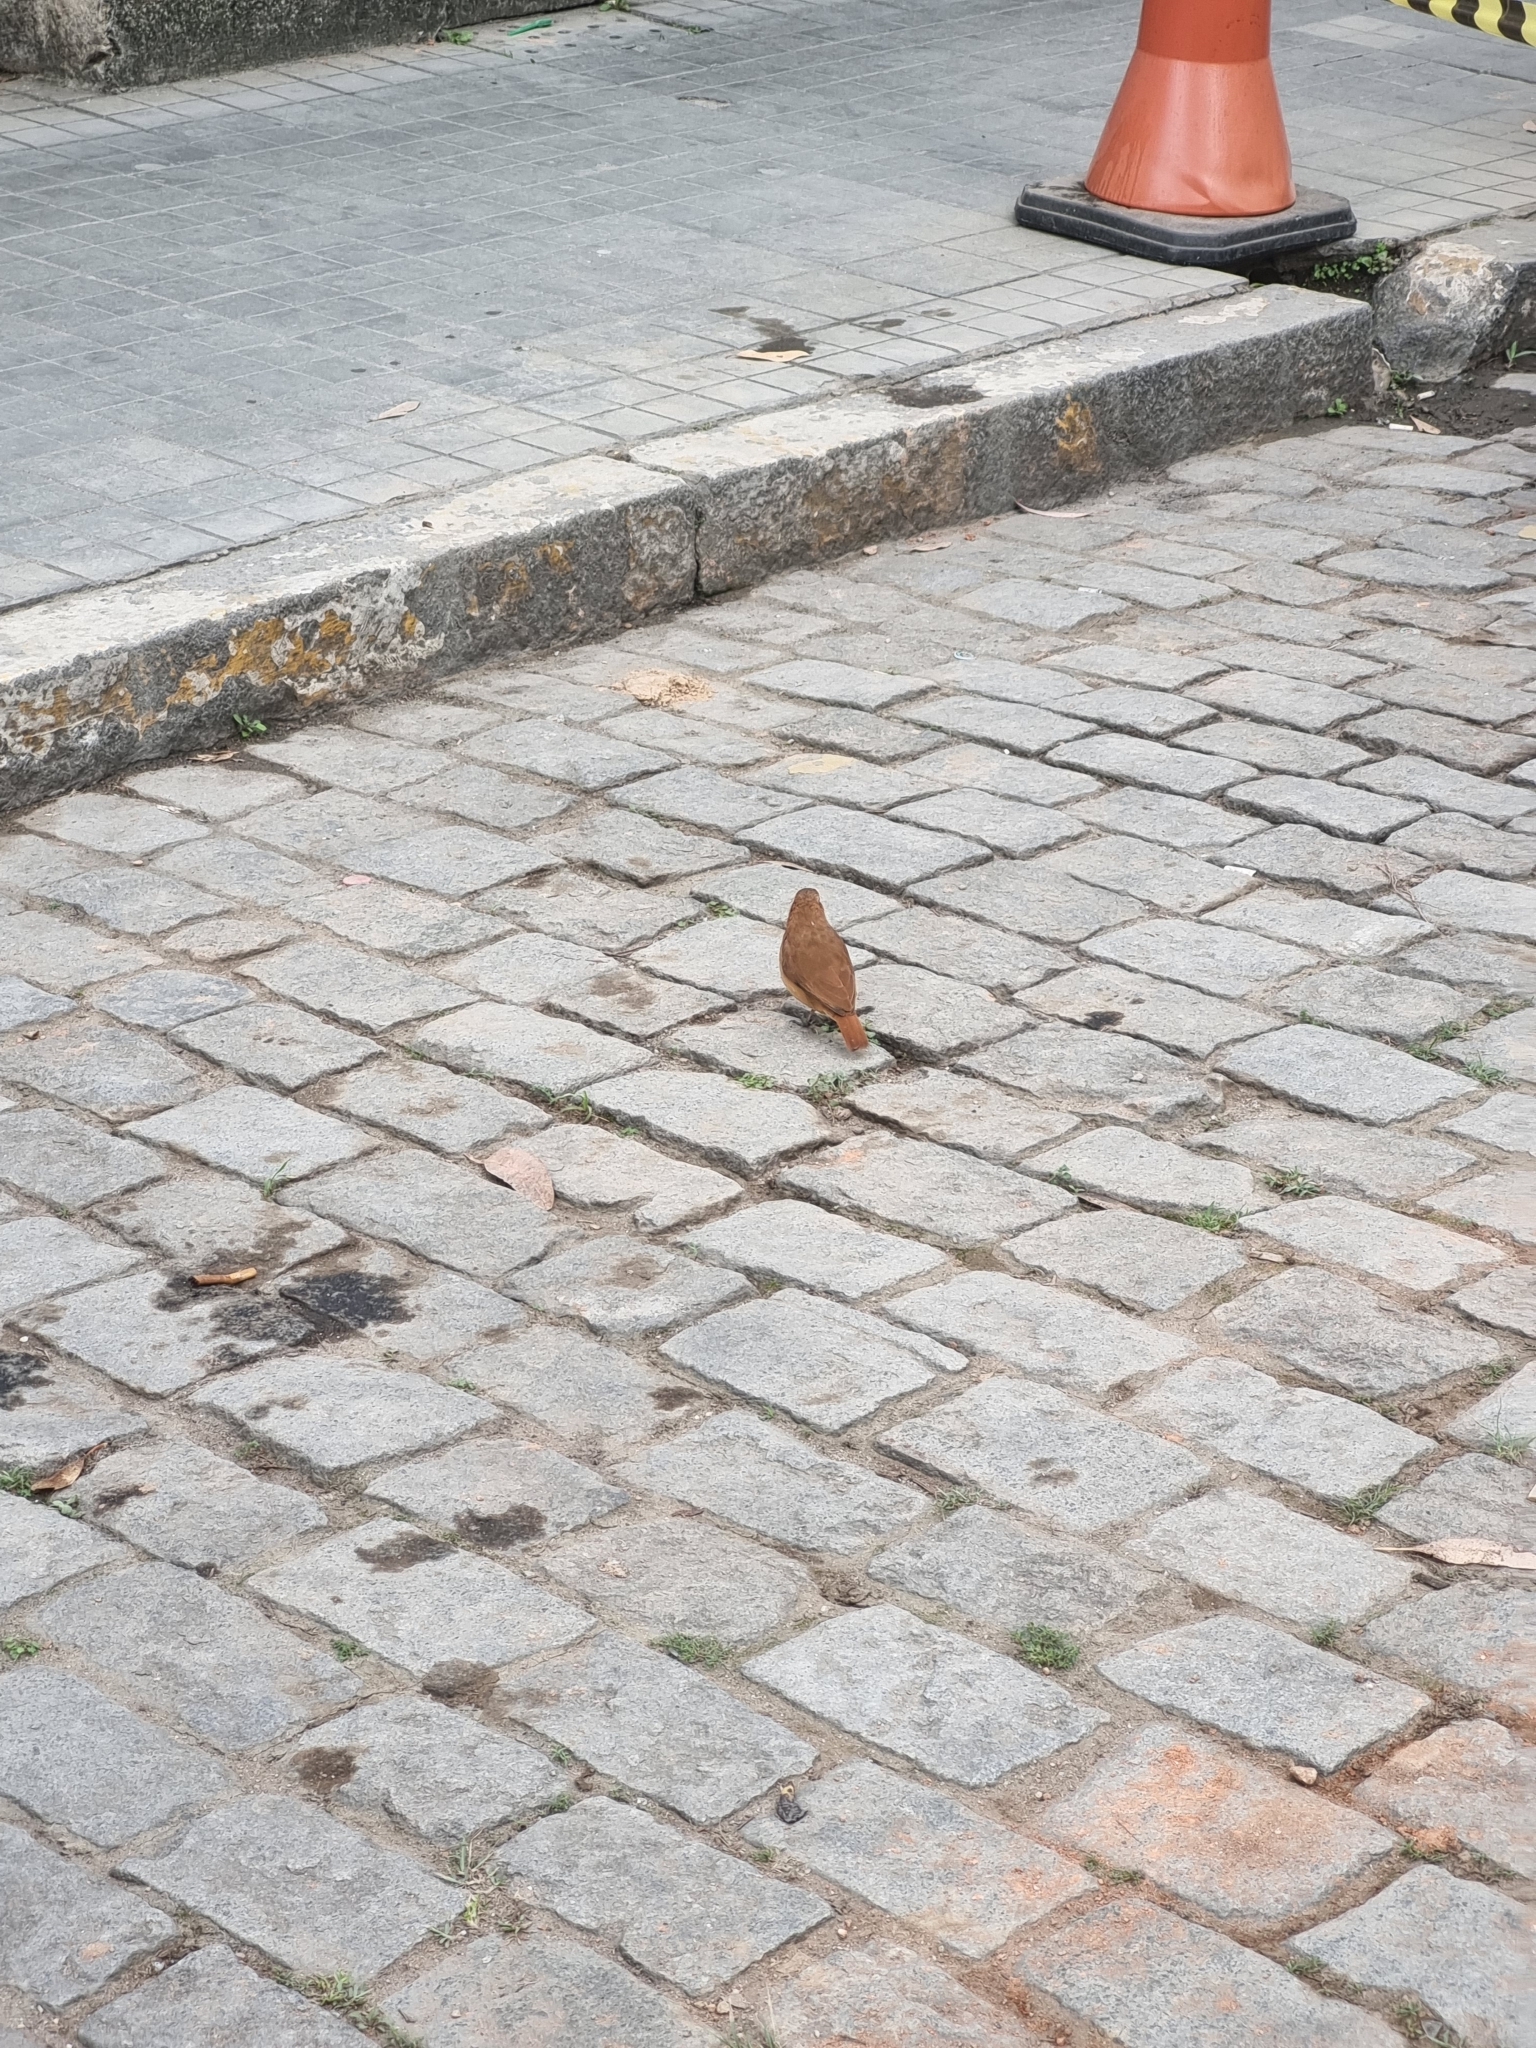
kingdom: Animalia
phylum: Chordata
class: Aves
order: Passeriformes
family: Furnariidae
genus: Furnarius
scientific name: Furnarius rufus
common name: Rufous hornero
